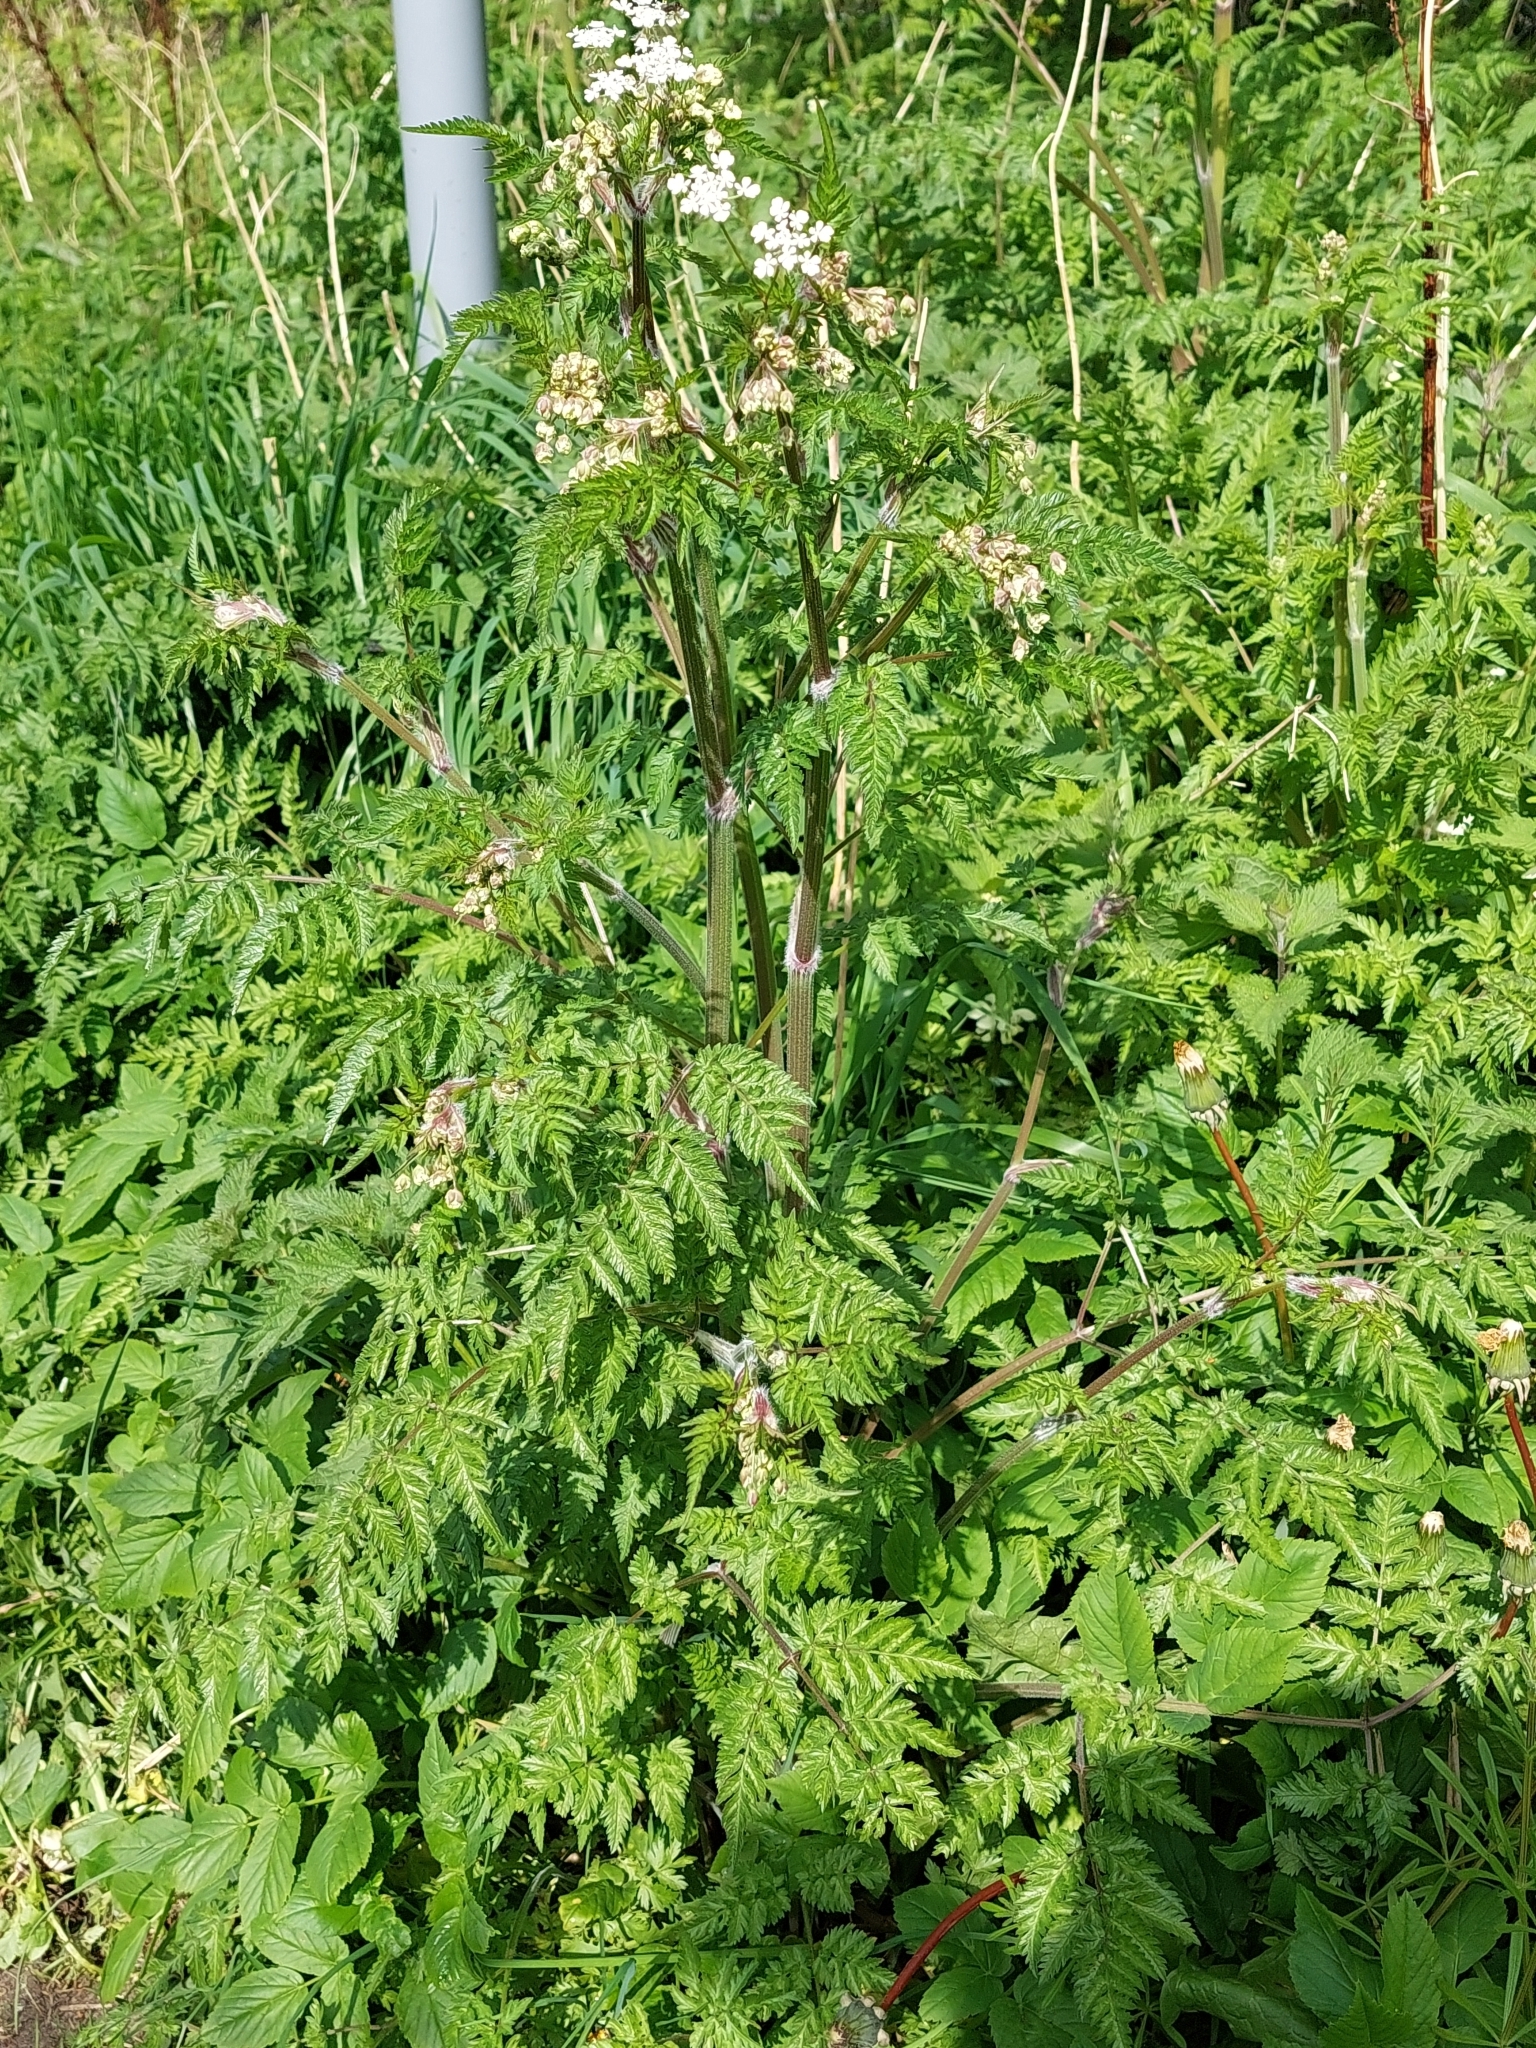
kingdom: Plantae
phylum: Tracheophyta
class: Magnoliopsida
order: Apiales
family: Apiaceae
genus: Anthriscus
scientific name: Anthriscus sylvestris
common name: Cow parsley
